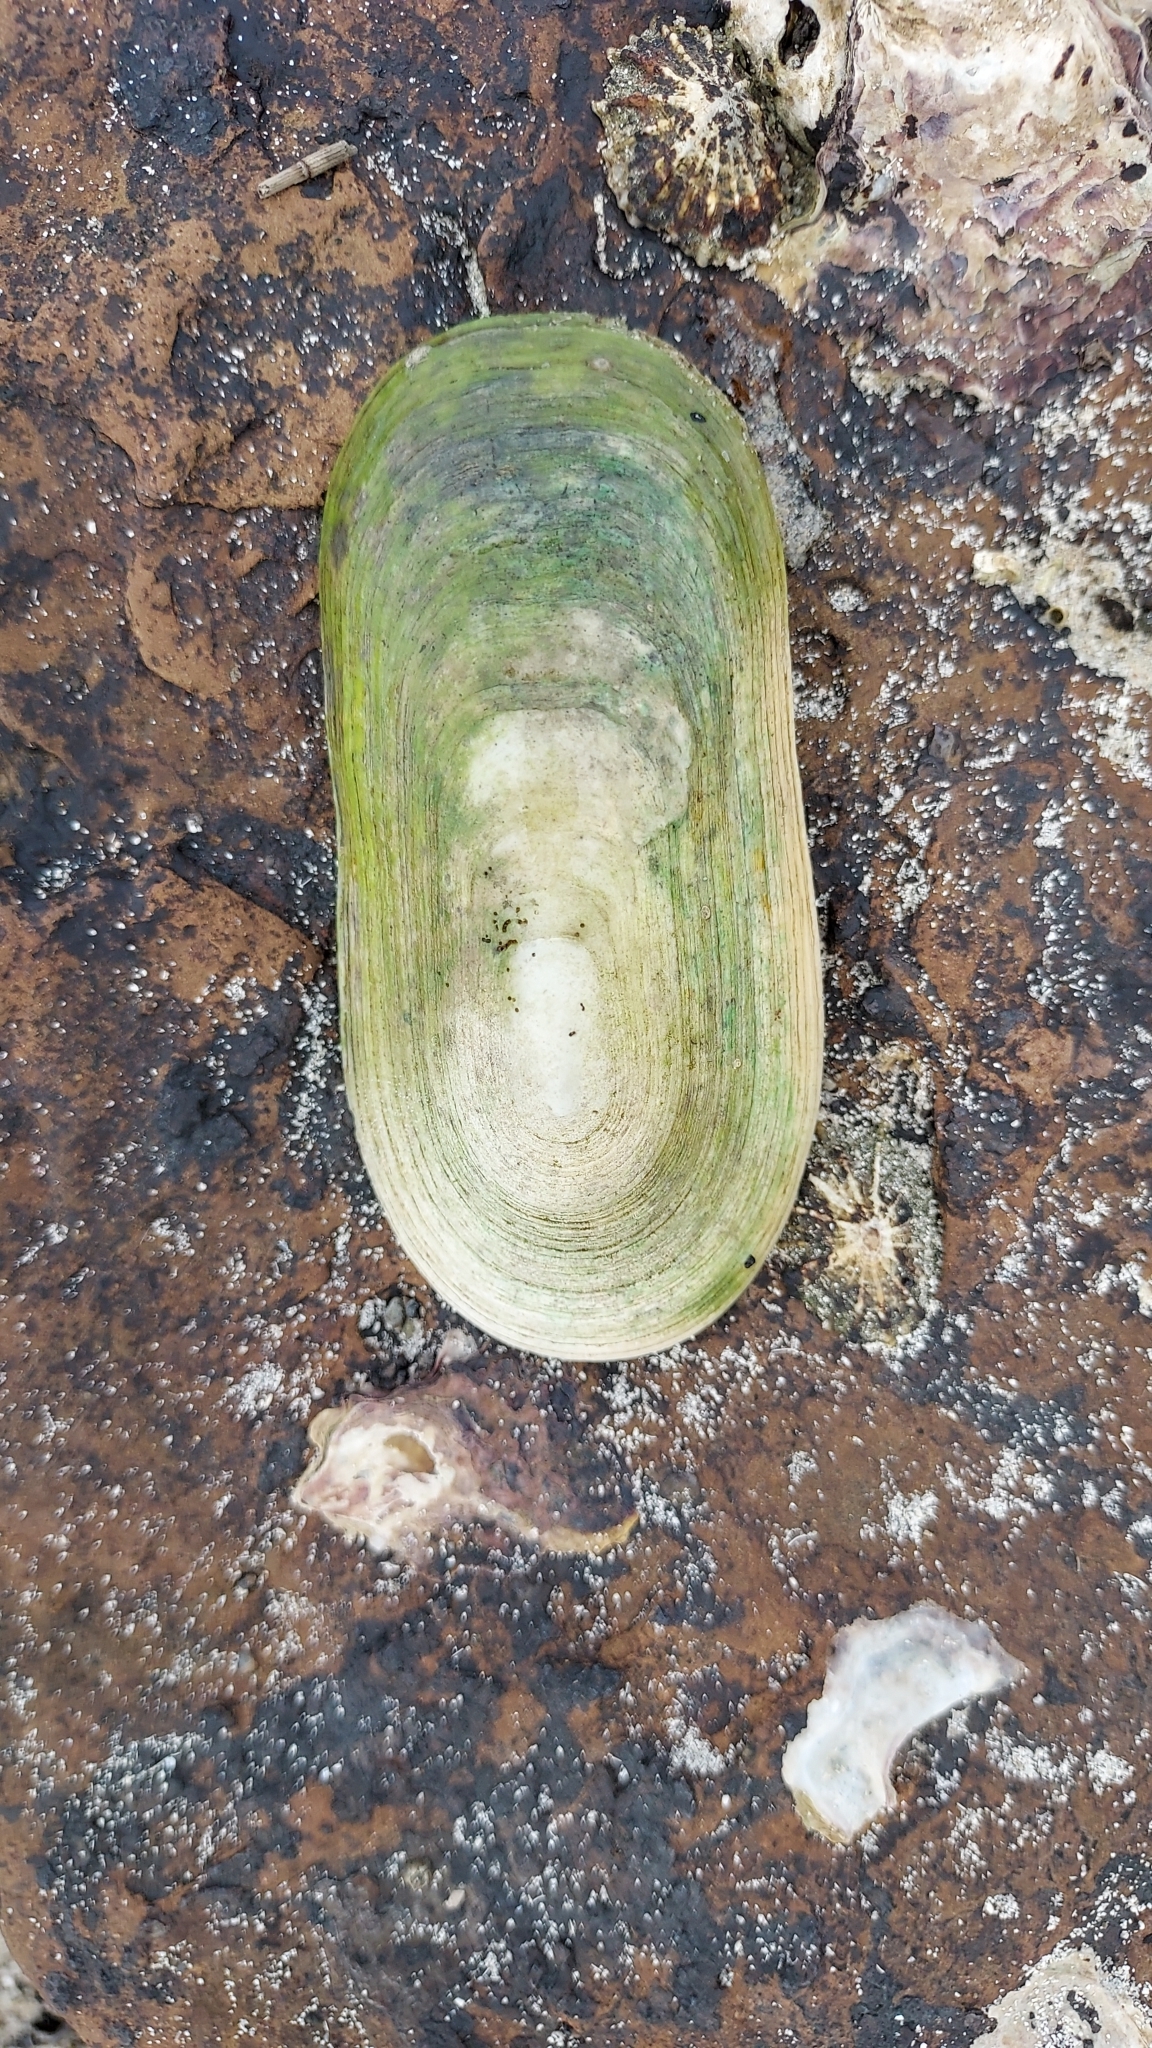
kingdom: Animalia
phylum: Mollusca
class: Gastropoda
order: Lepetellida
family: Fissurellidae
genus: Scutus
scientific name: Scutus antipodes
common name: Duckbill shell
